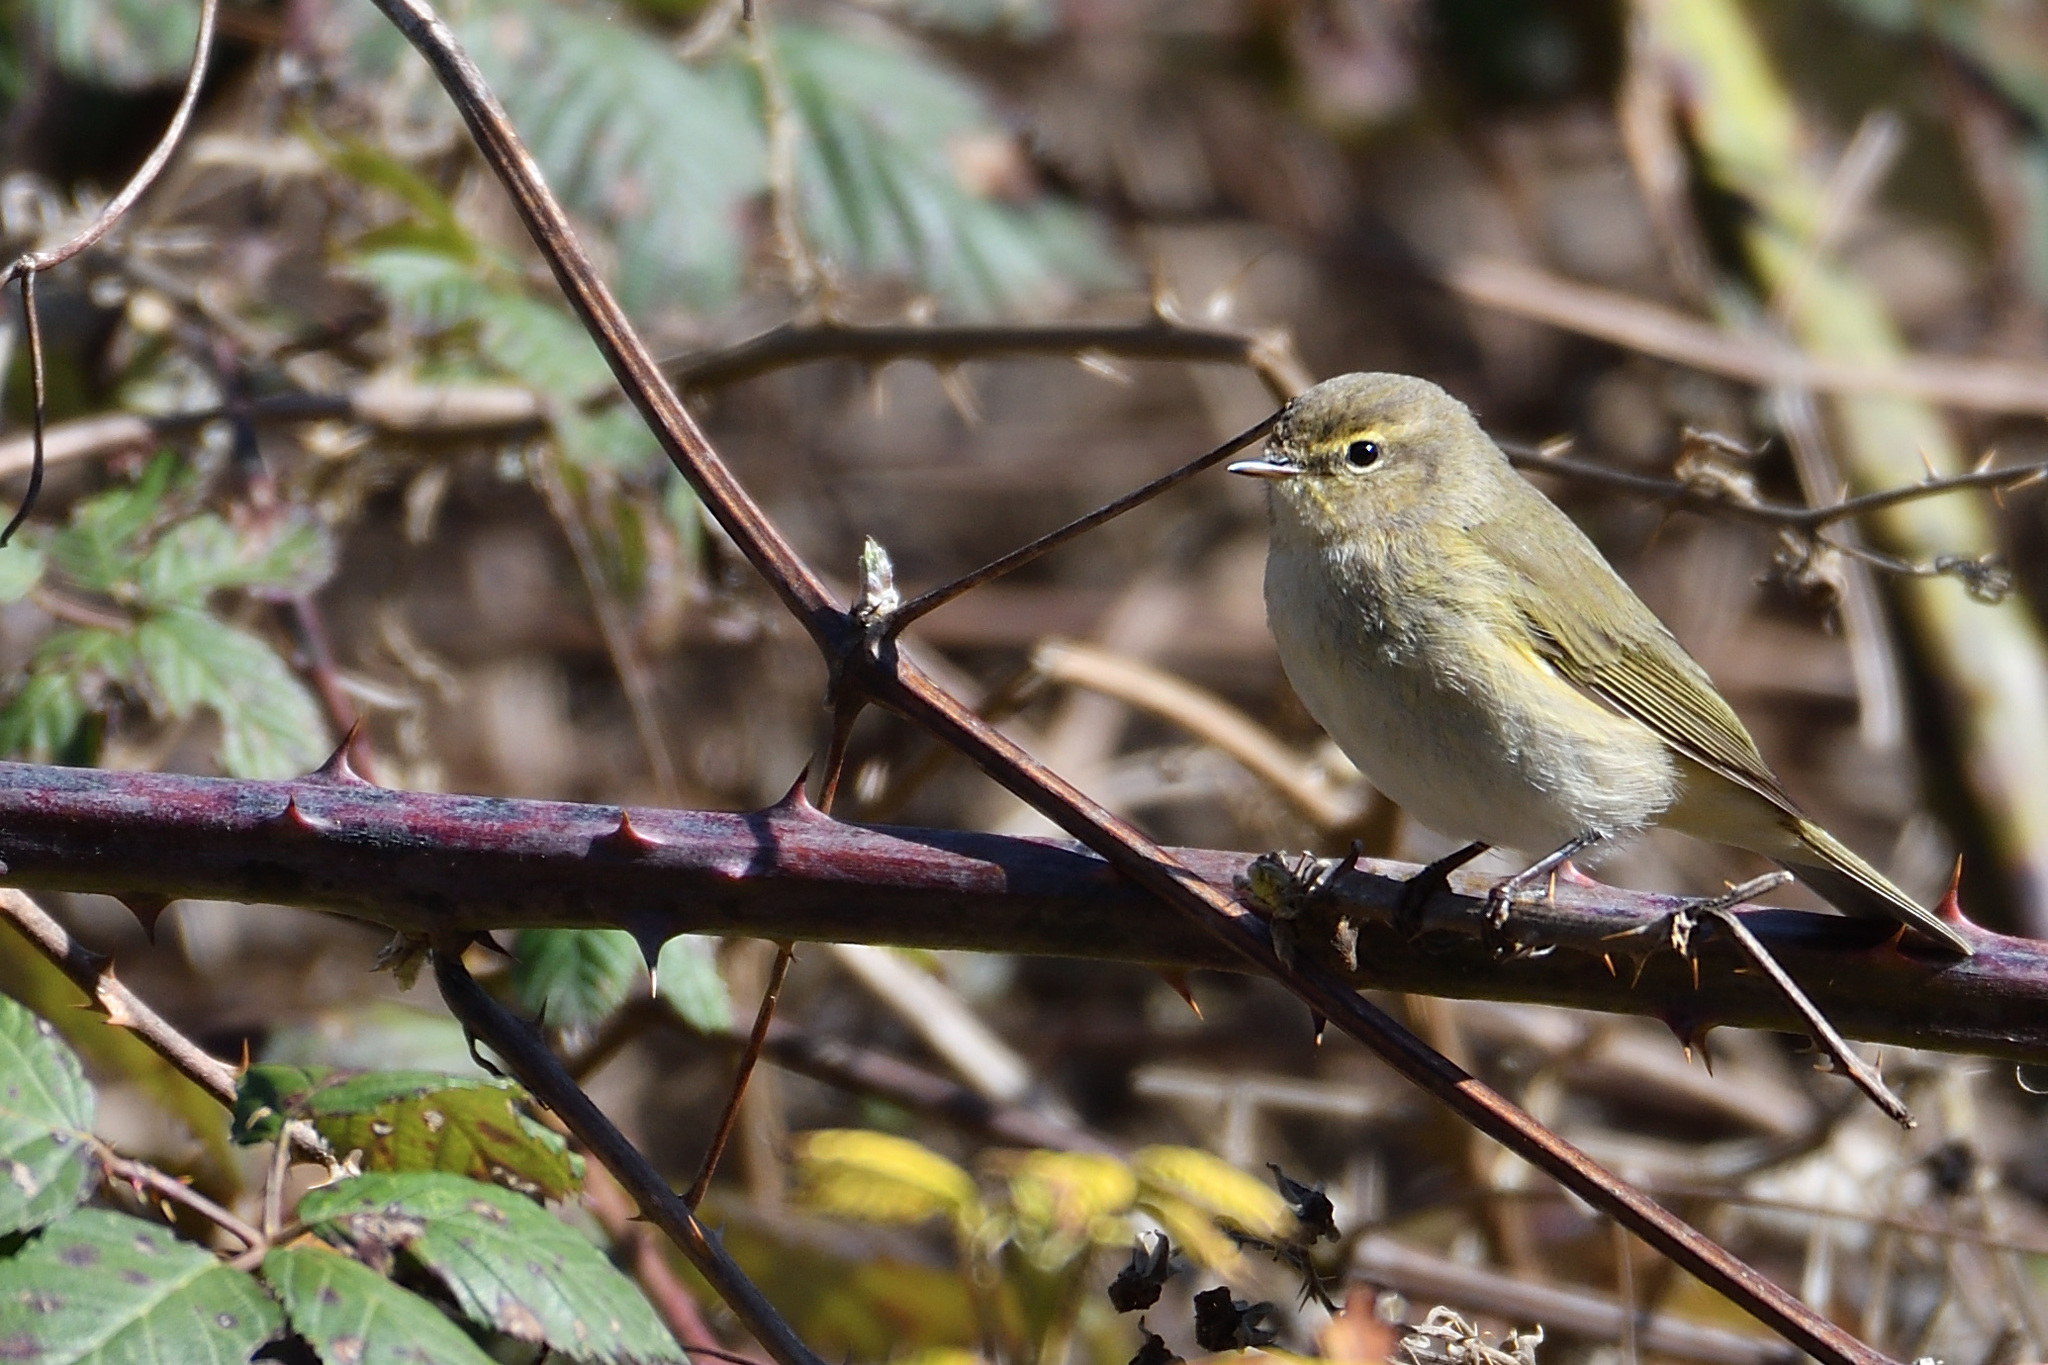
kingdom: Animalia
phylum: Chordata
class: Aves
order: Passeriformes
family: Phylloscopidae
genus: Phylloscopus
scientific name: Phylloscopus collybita
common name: Common chiffchaff
